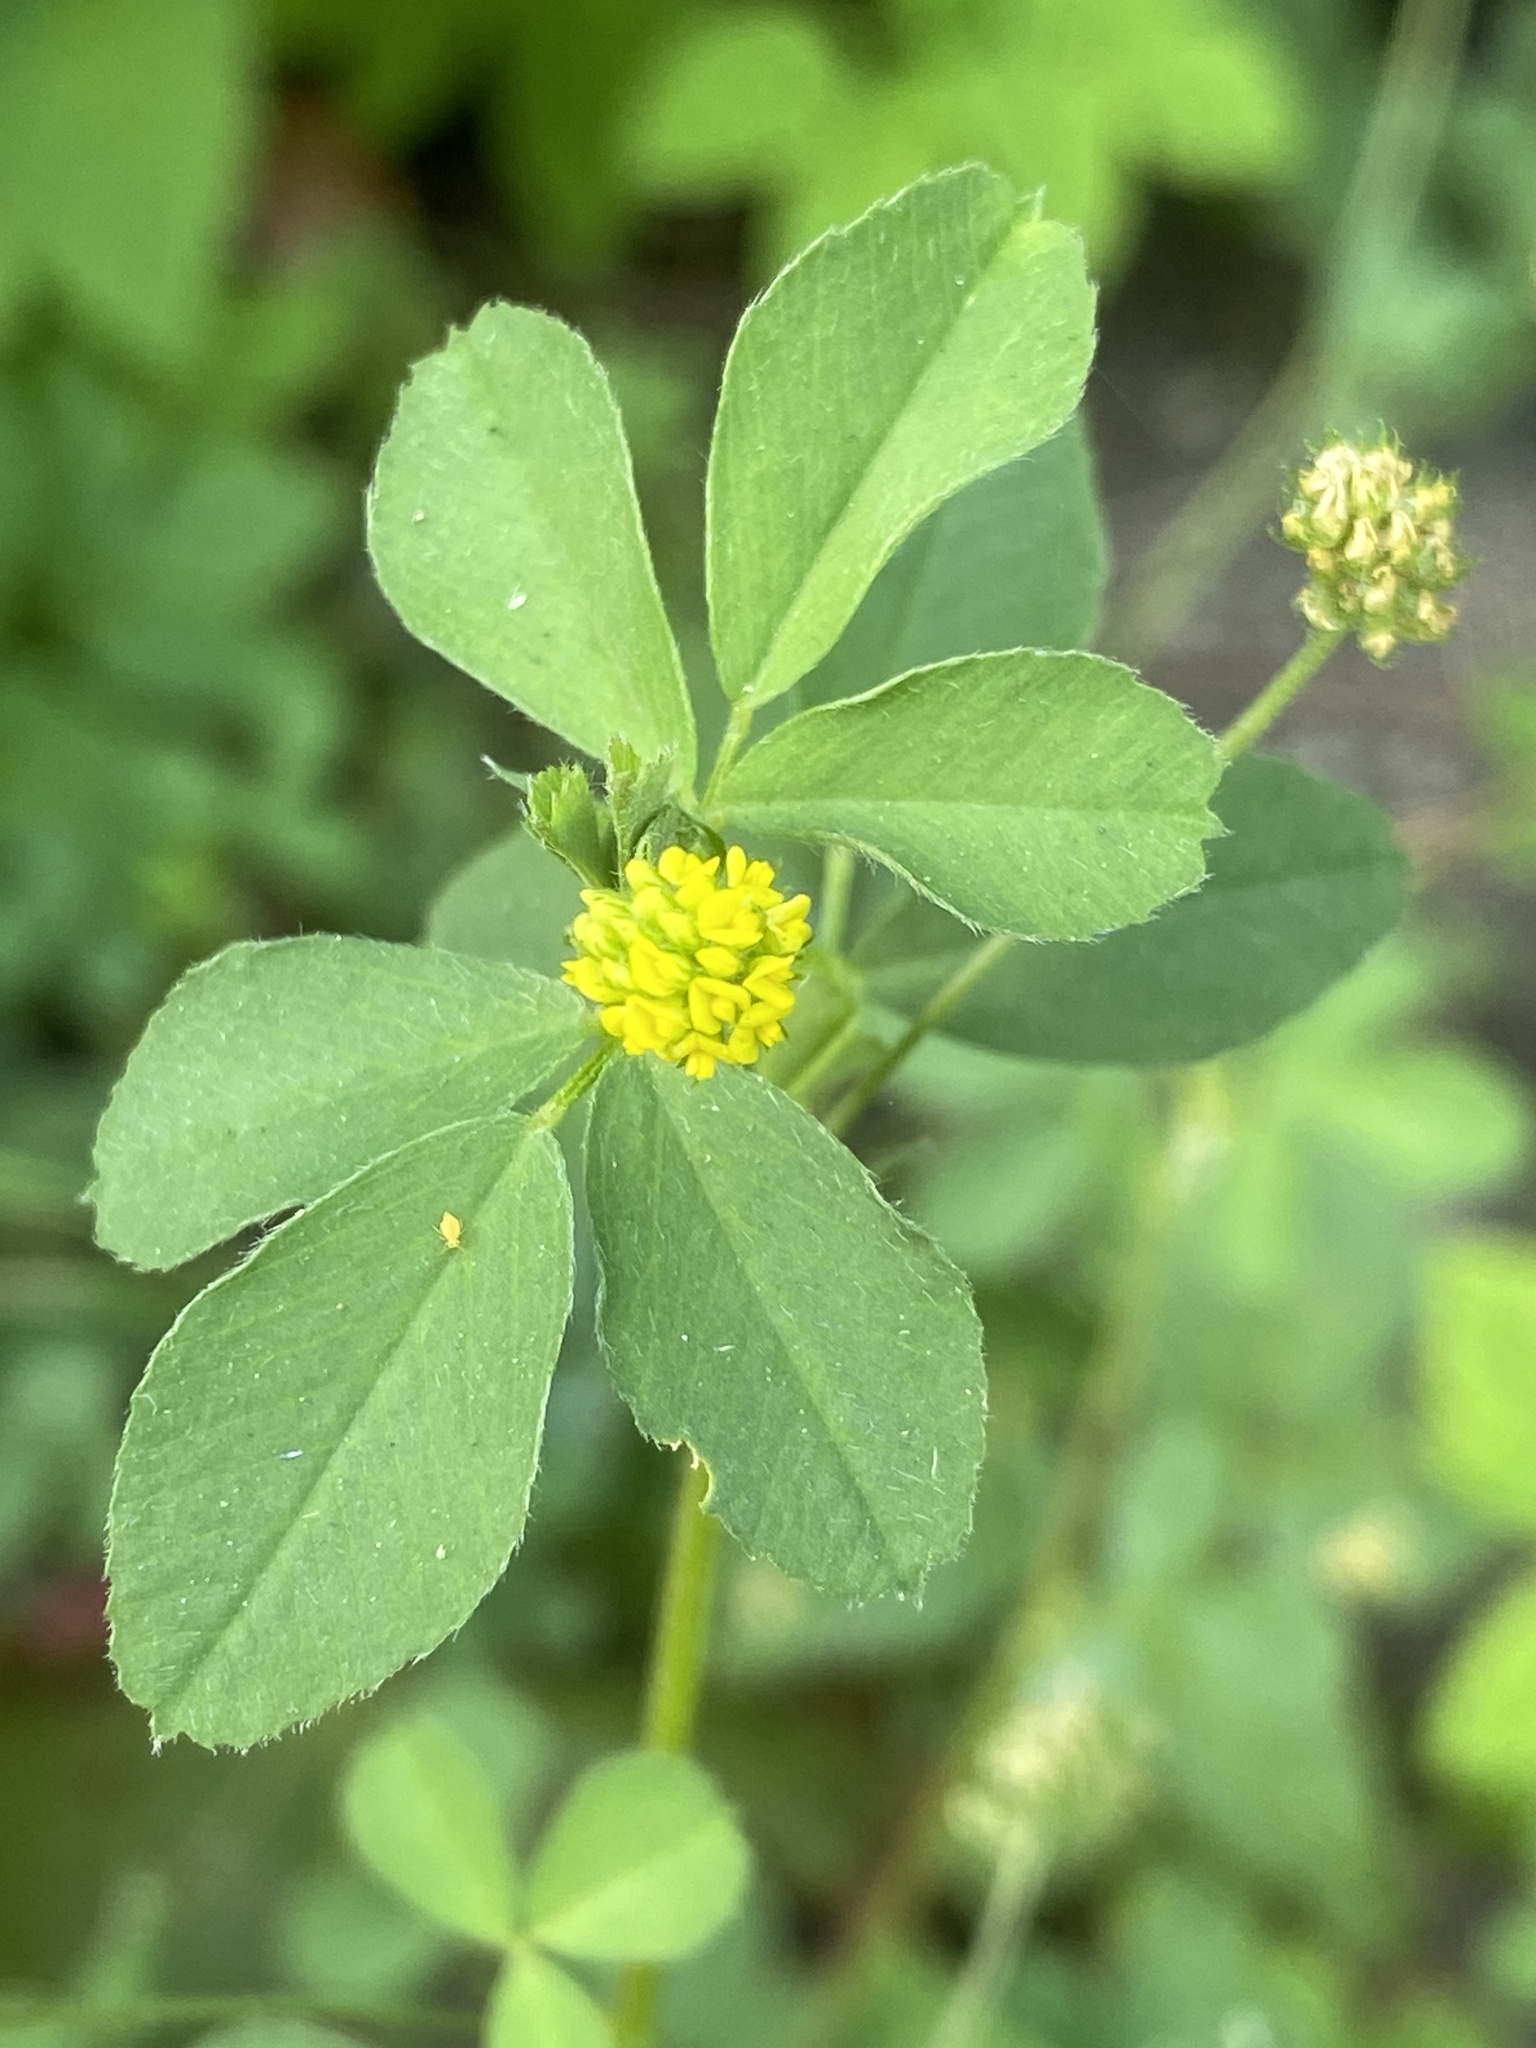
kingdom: Plantae
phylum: Tracheophyta
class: Magnoliopsida
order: Fabales
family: Fabaceae
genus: Medicago
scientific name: Medicago lupulina
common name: Black medick
